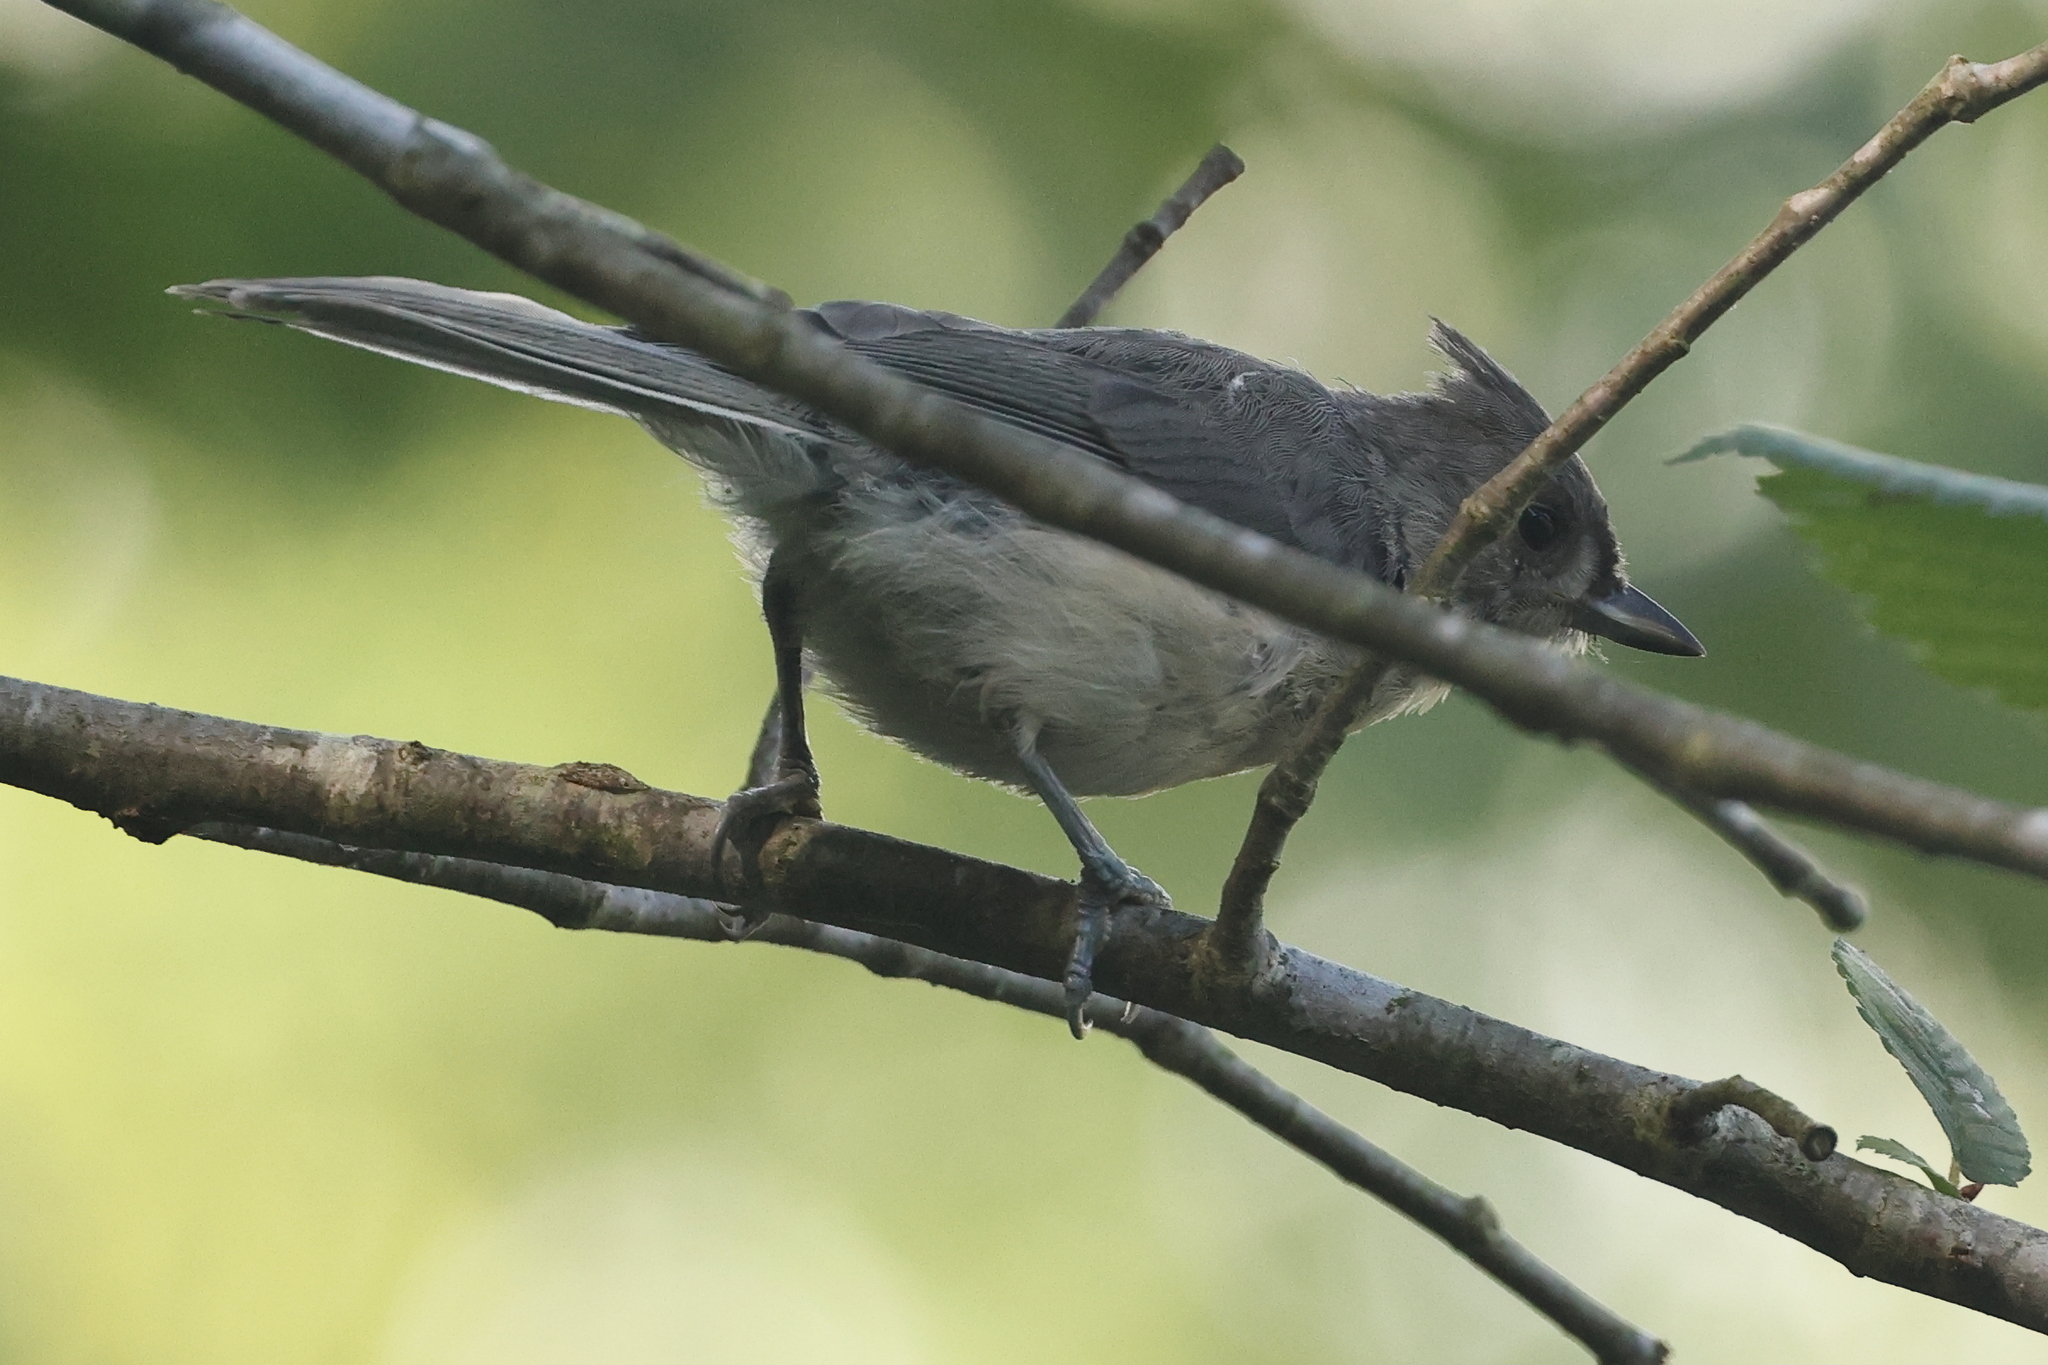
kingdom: Animalia
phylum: Chordata
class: Aves
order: Passeriformes
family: Paridae
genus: Baeolophus
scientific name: Baeolophus bicolor
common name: Tufted titmouse
